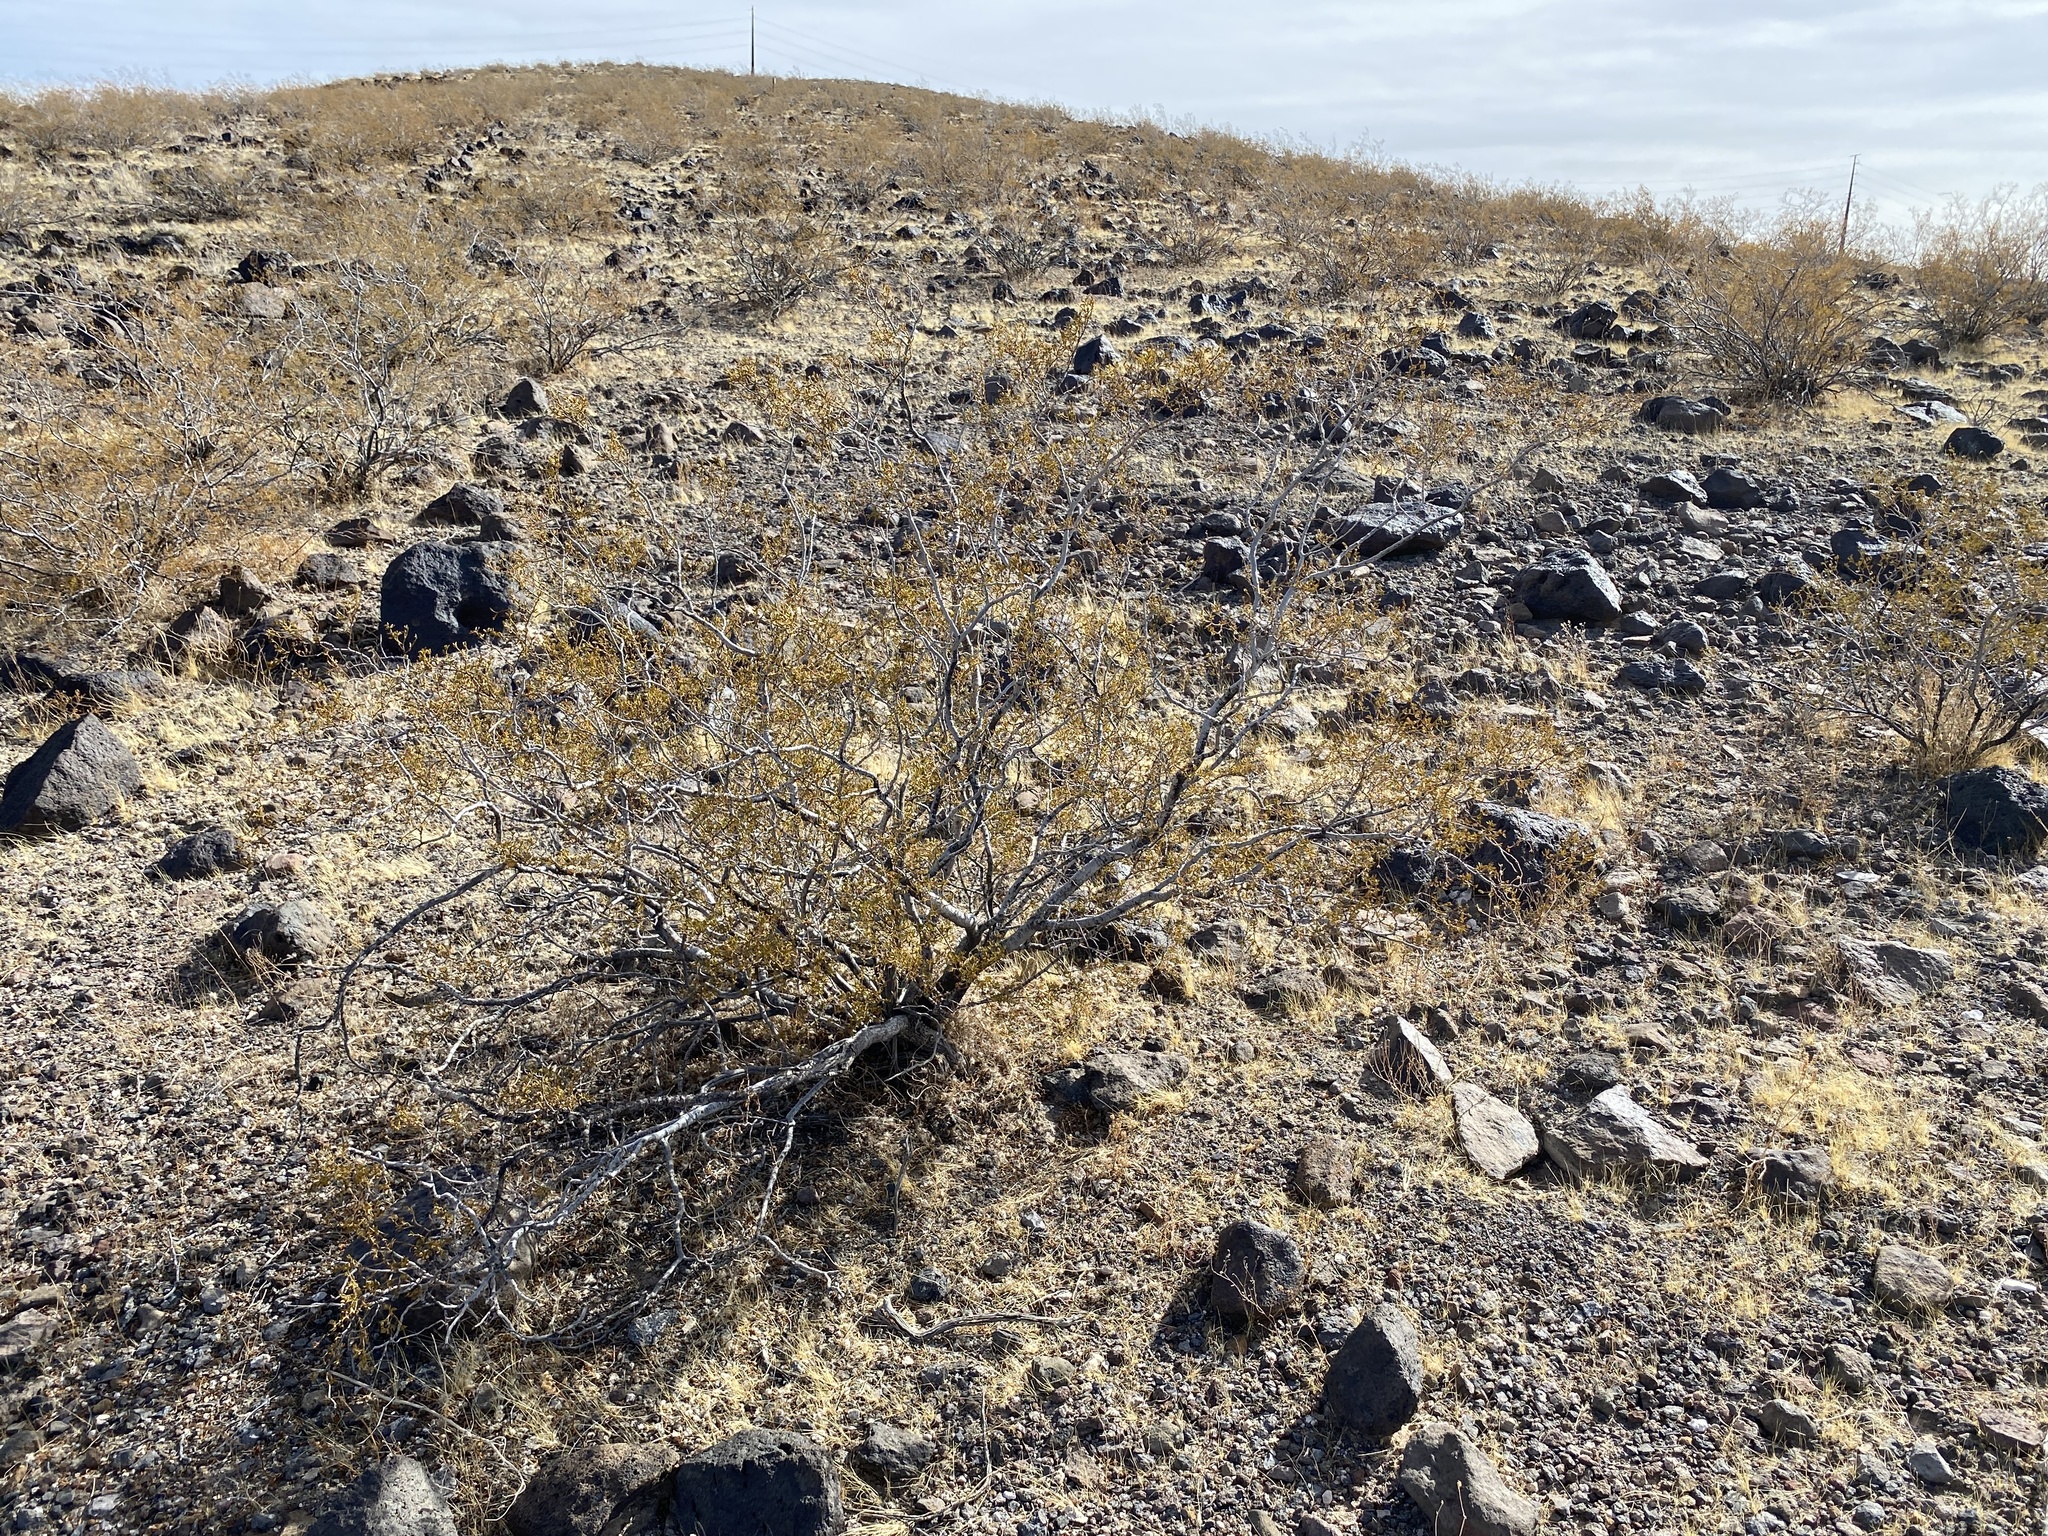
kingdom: Plantae
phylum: Tracheophyta
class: Magnoliopsida
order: Zygophyllales
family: Zygophyllaceae
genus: Larrea
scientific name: Larrea tridentata
